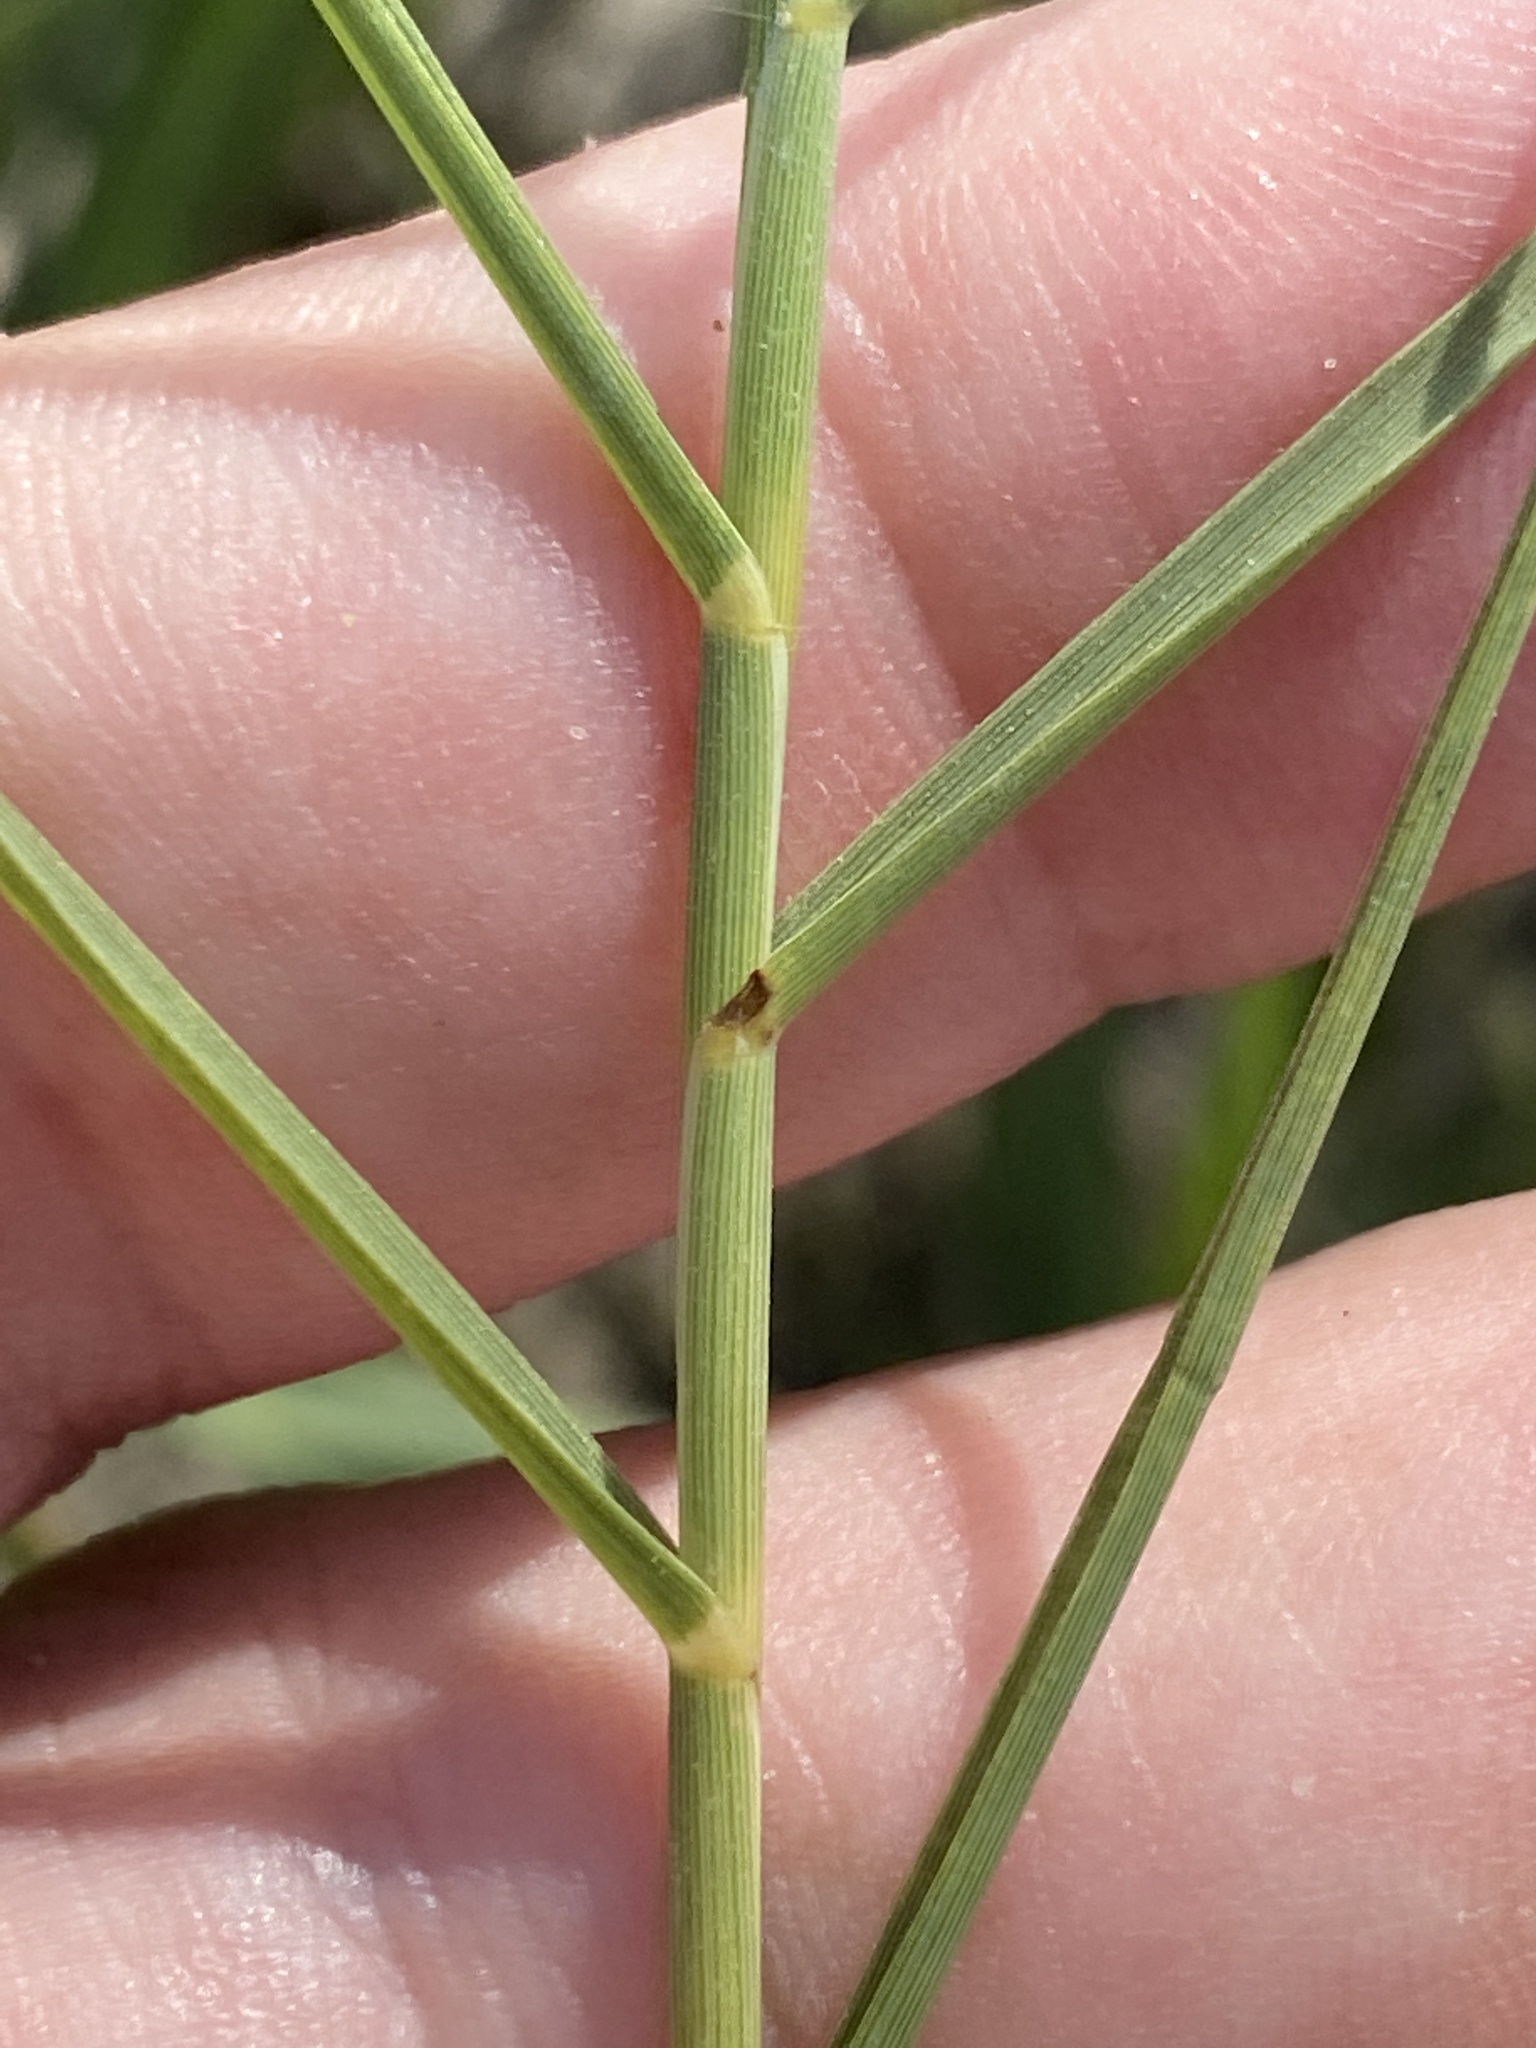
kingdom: Plantae
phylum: Tracheophyta
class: Liliopsida
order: Poales
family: Poaceae
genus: Distichlis
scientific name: Distichlis spicata
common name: Saltgrass
